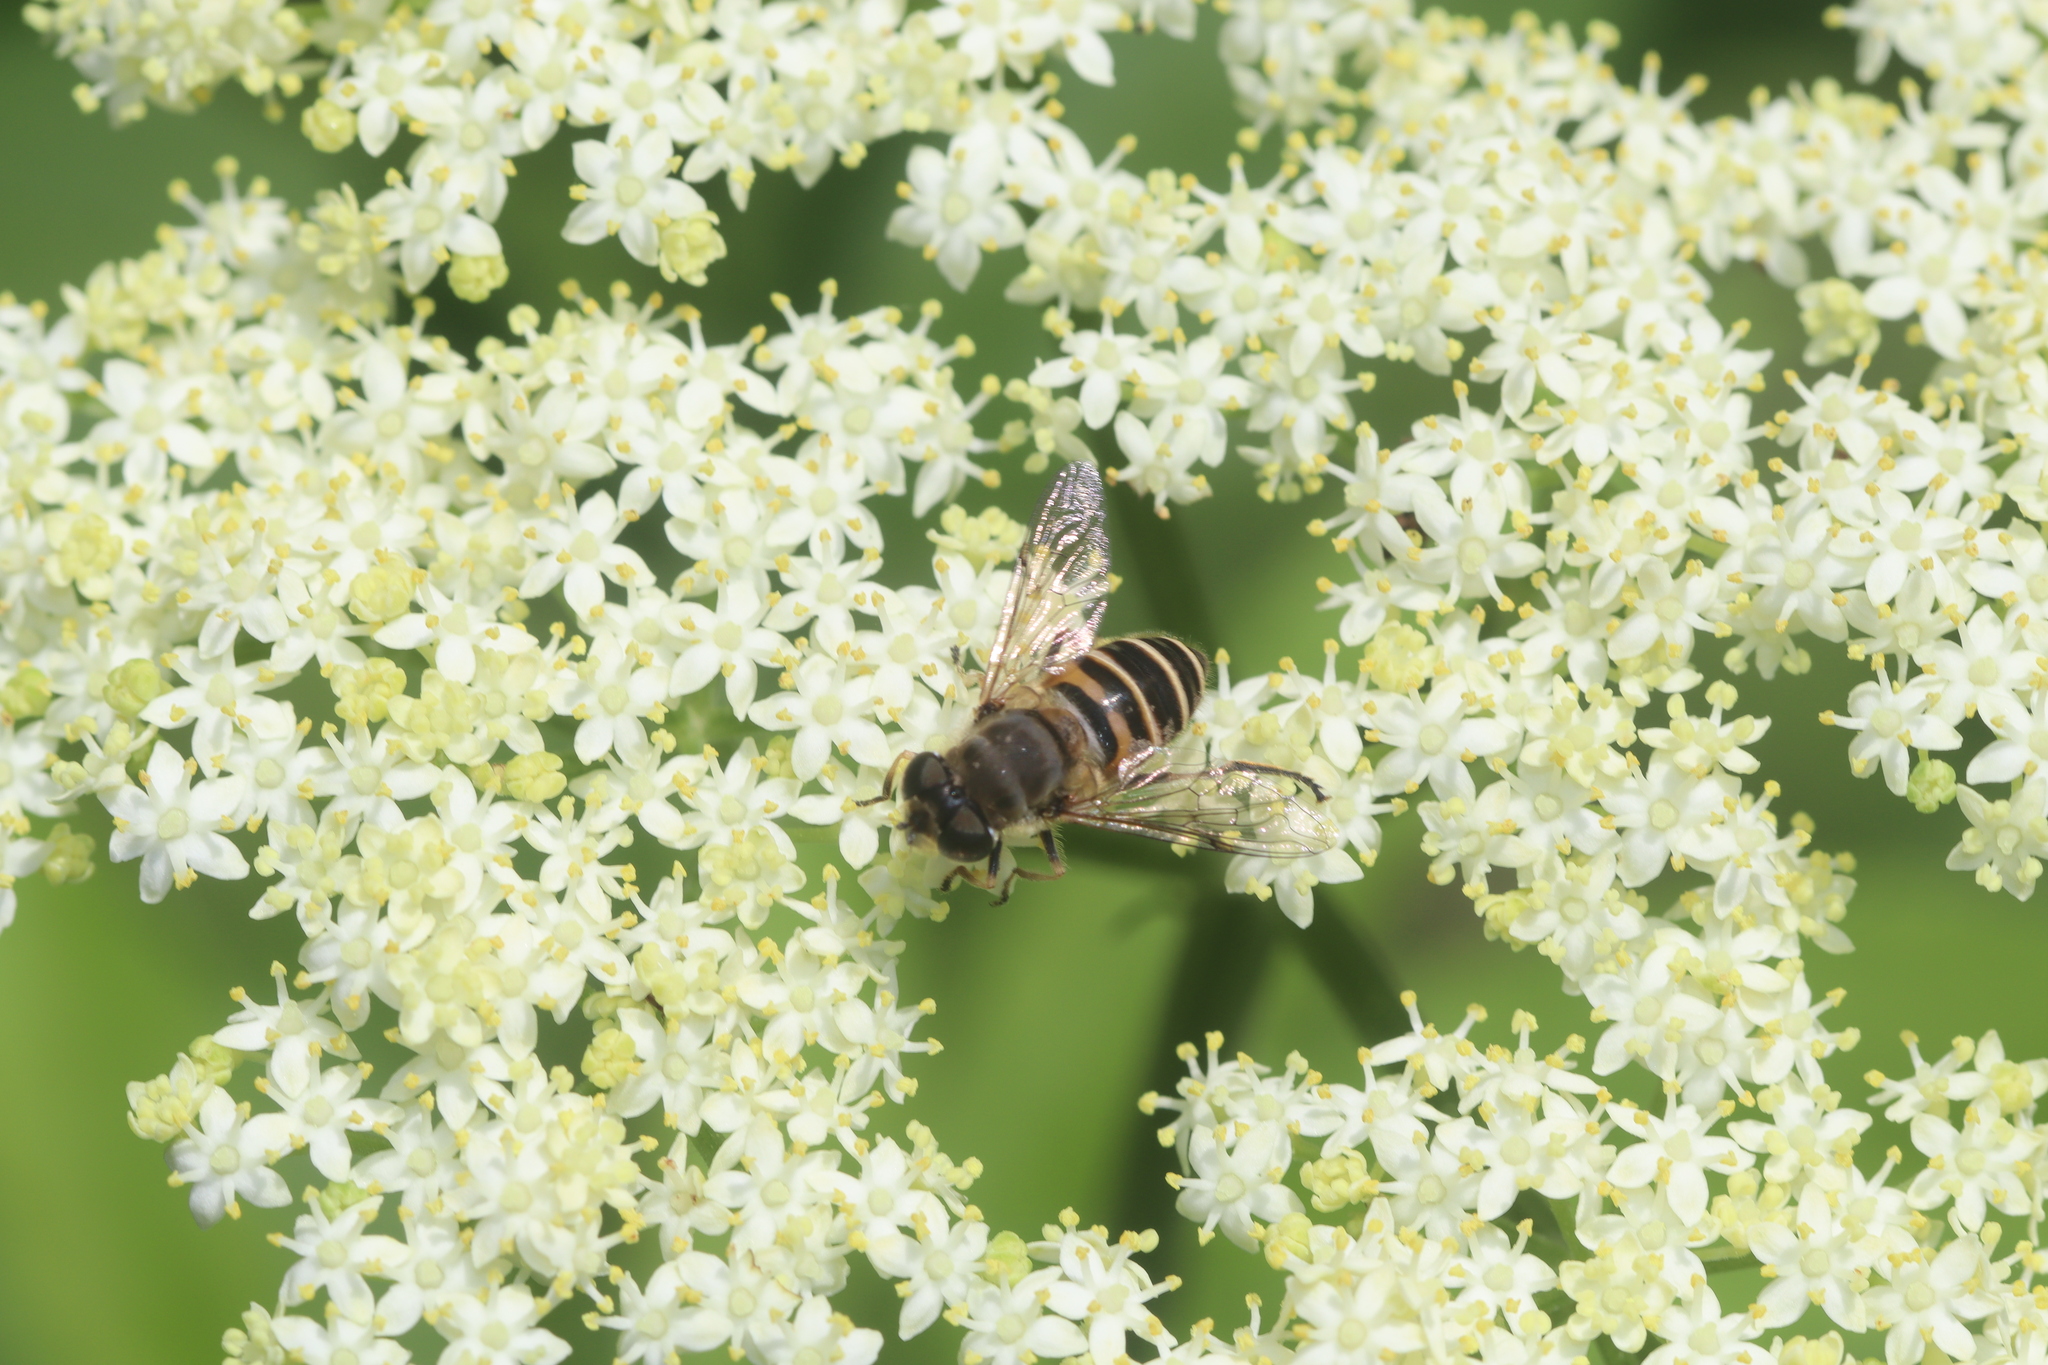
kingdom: Animalia
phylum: Arthropoda
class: Insecta
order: Diptera
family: Syrphidae
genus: Eristalis
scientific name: Eristalis cerealis
